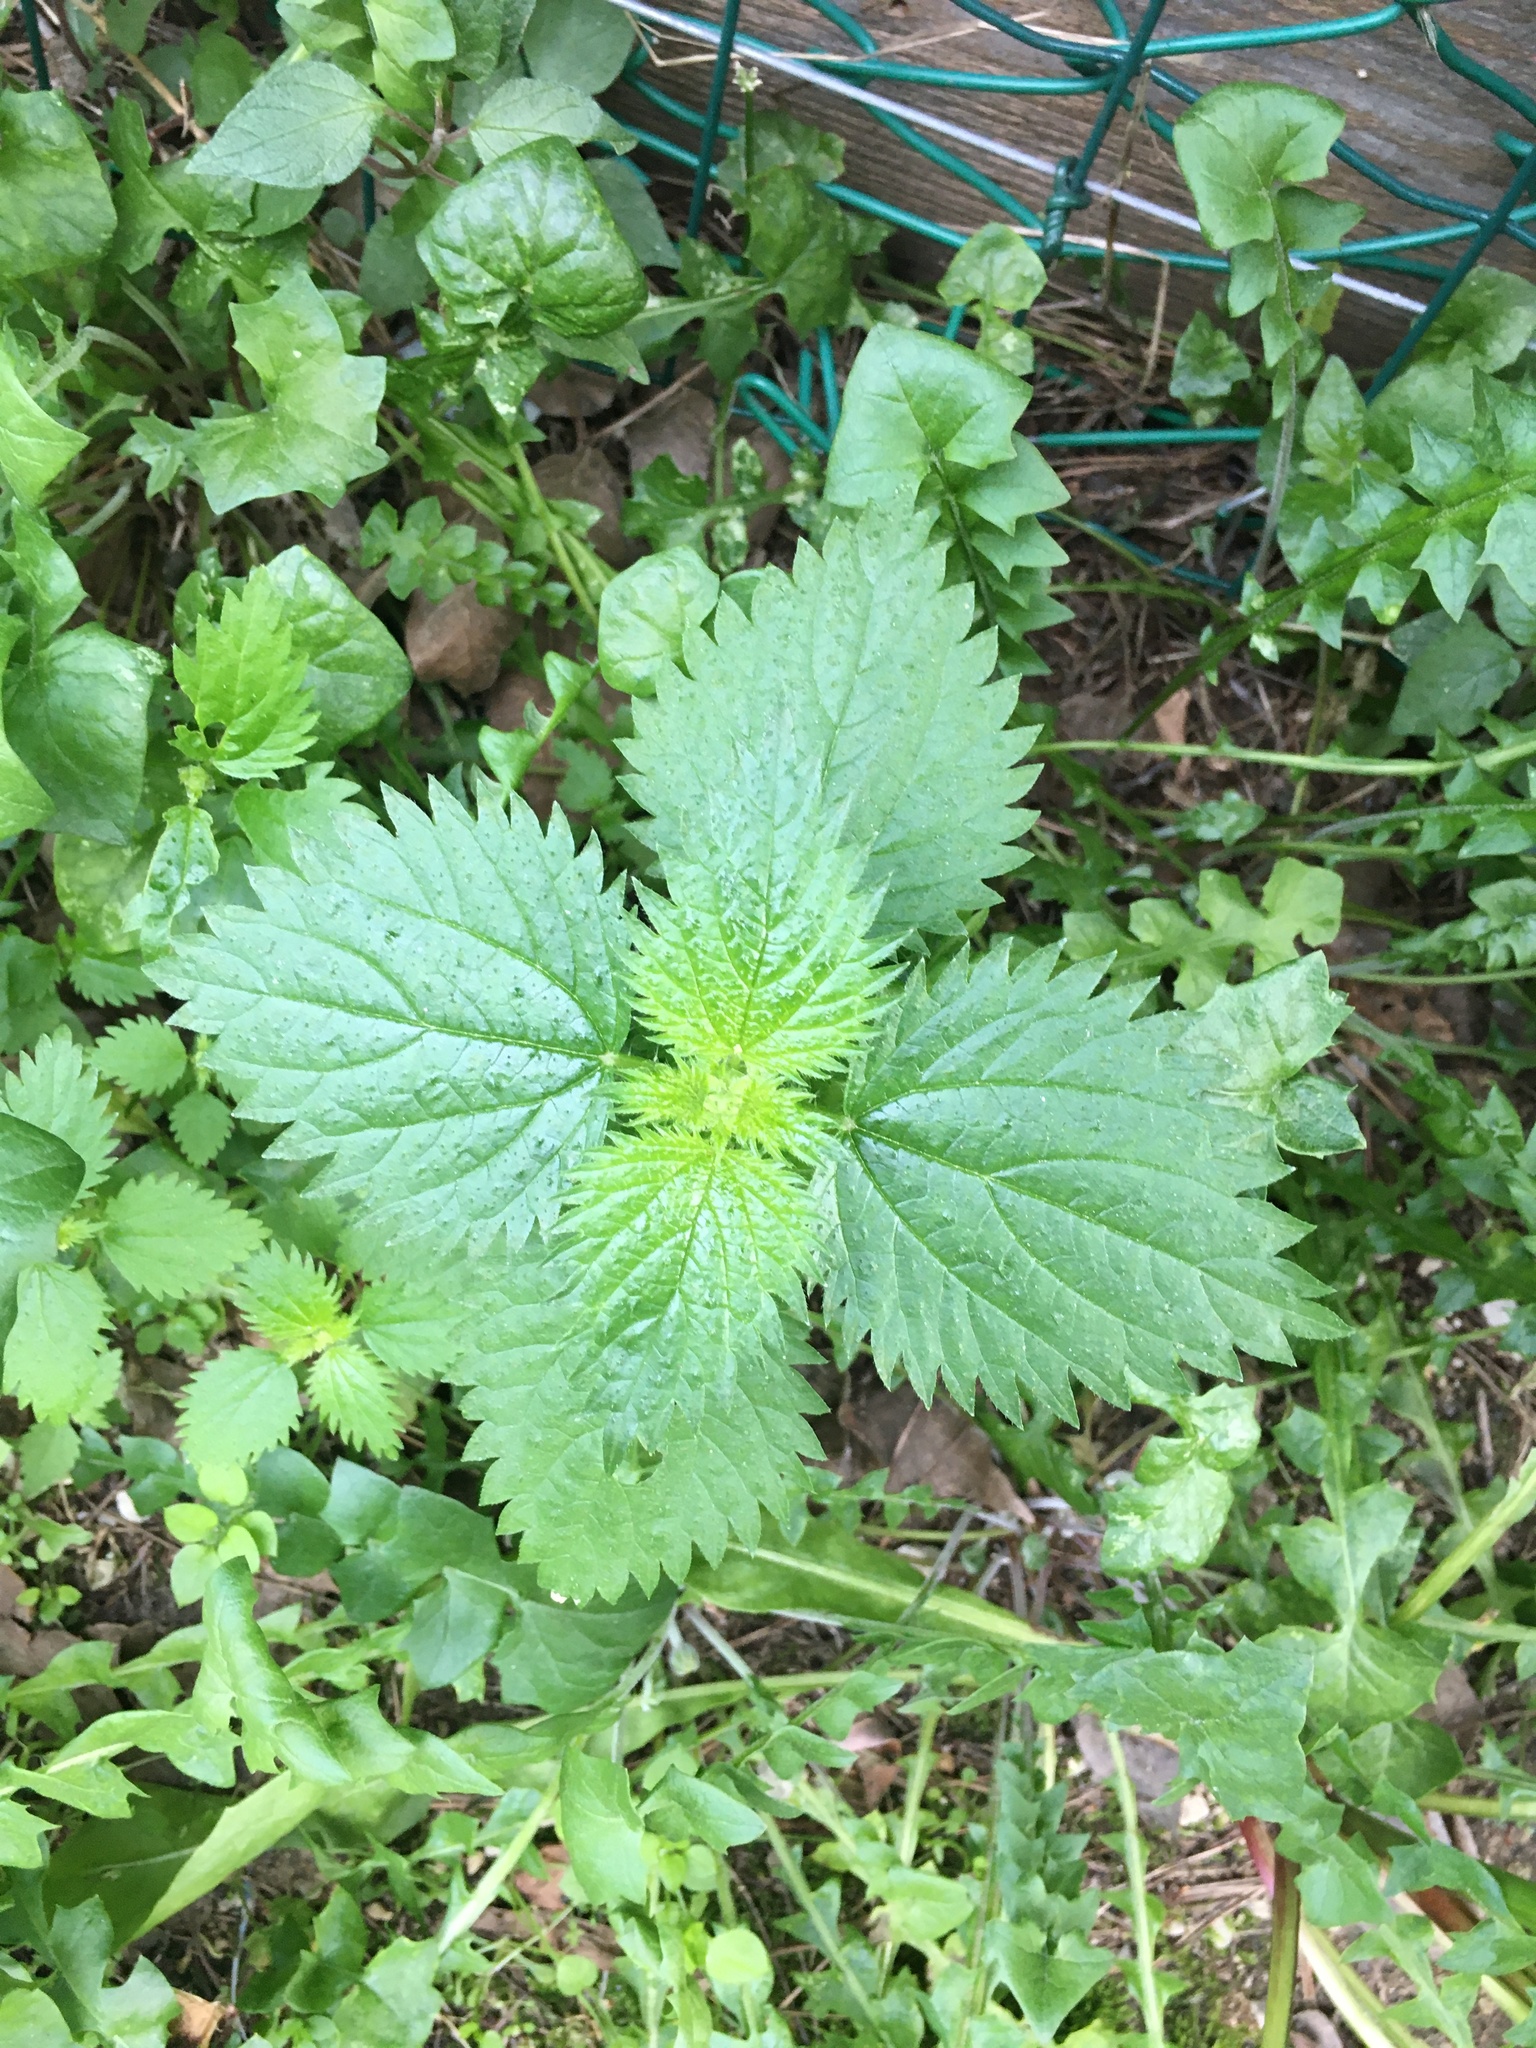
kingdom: Plantae
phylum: Tracheophyta
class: Magnoliopsida
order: Rosales
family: Urticaceae
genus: Urtica
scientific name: Urtica dioica
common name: Common nettle
